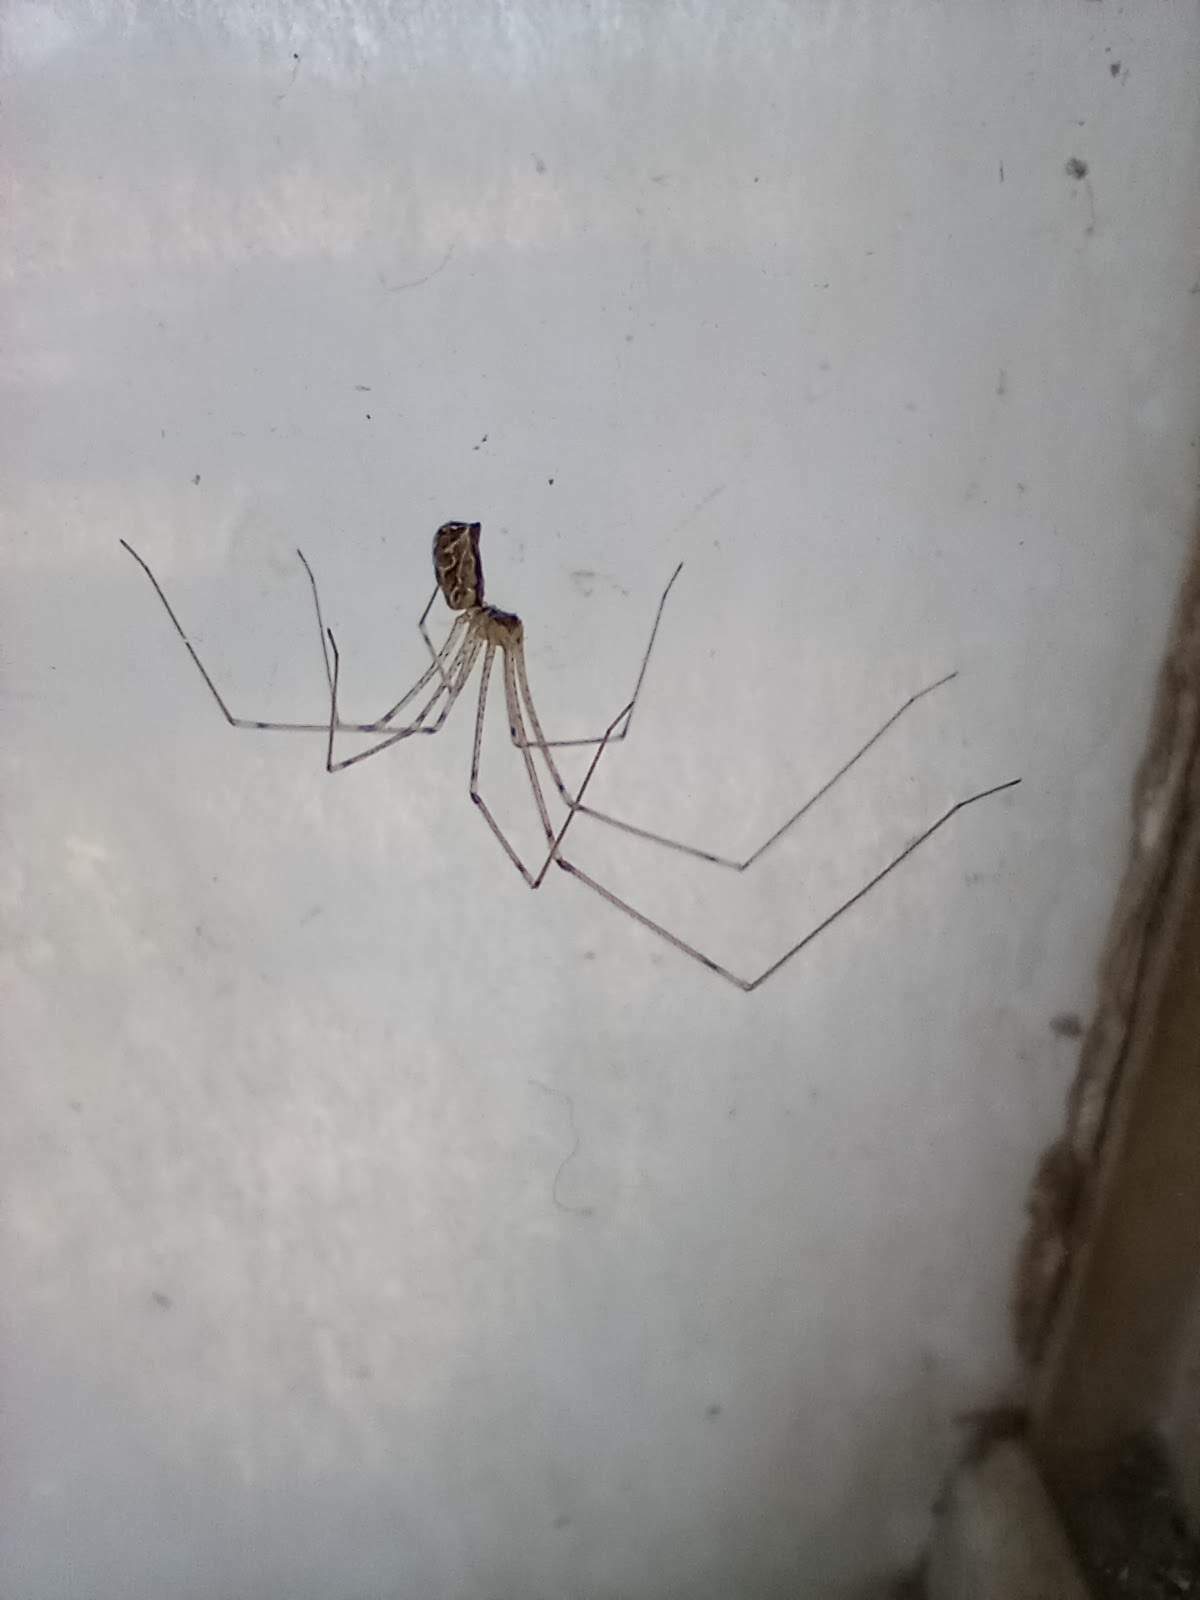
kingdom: Animalia
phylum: Arthropoda
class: Arachnida
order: Araneae
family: Pholcidae
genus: Holocnemus
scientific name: Holocnemus pluchei
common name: Marbled cellar spider
